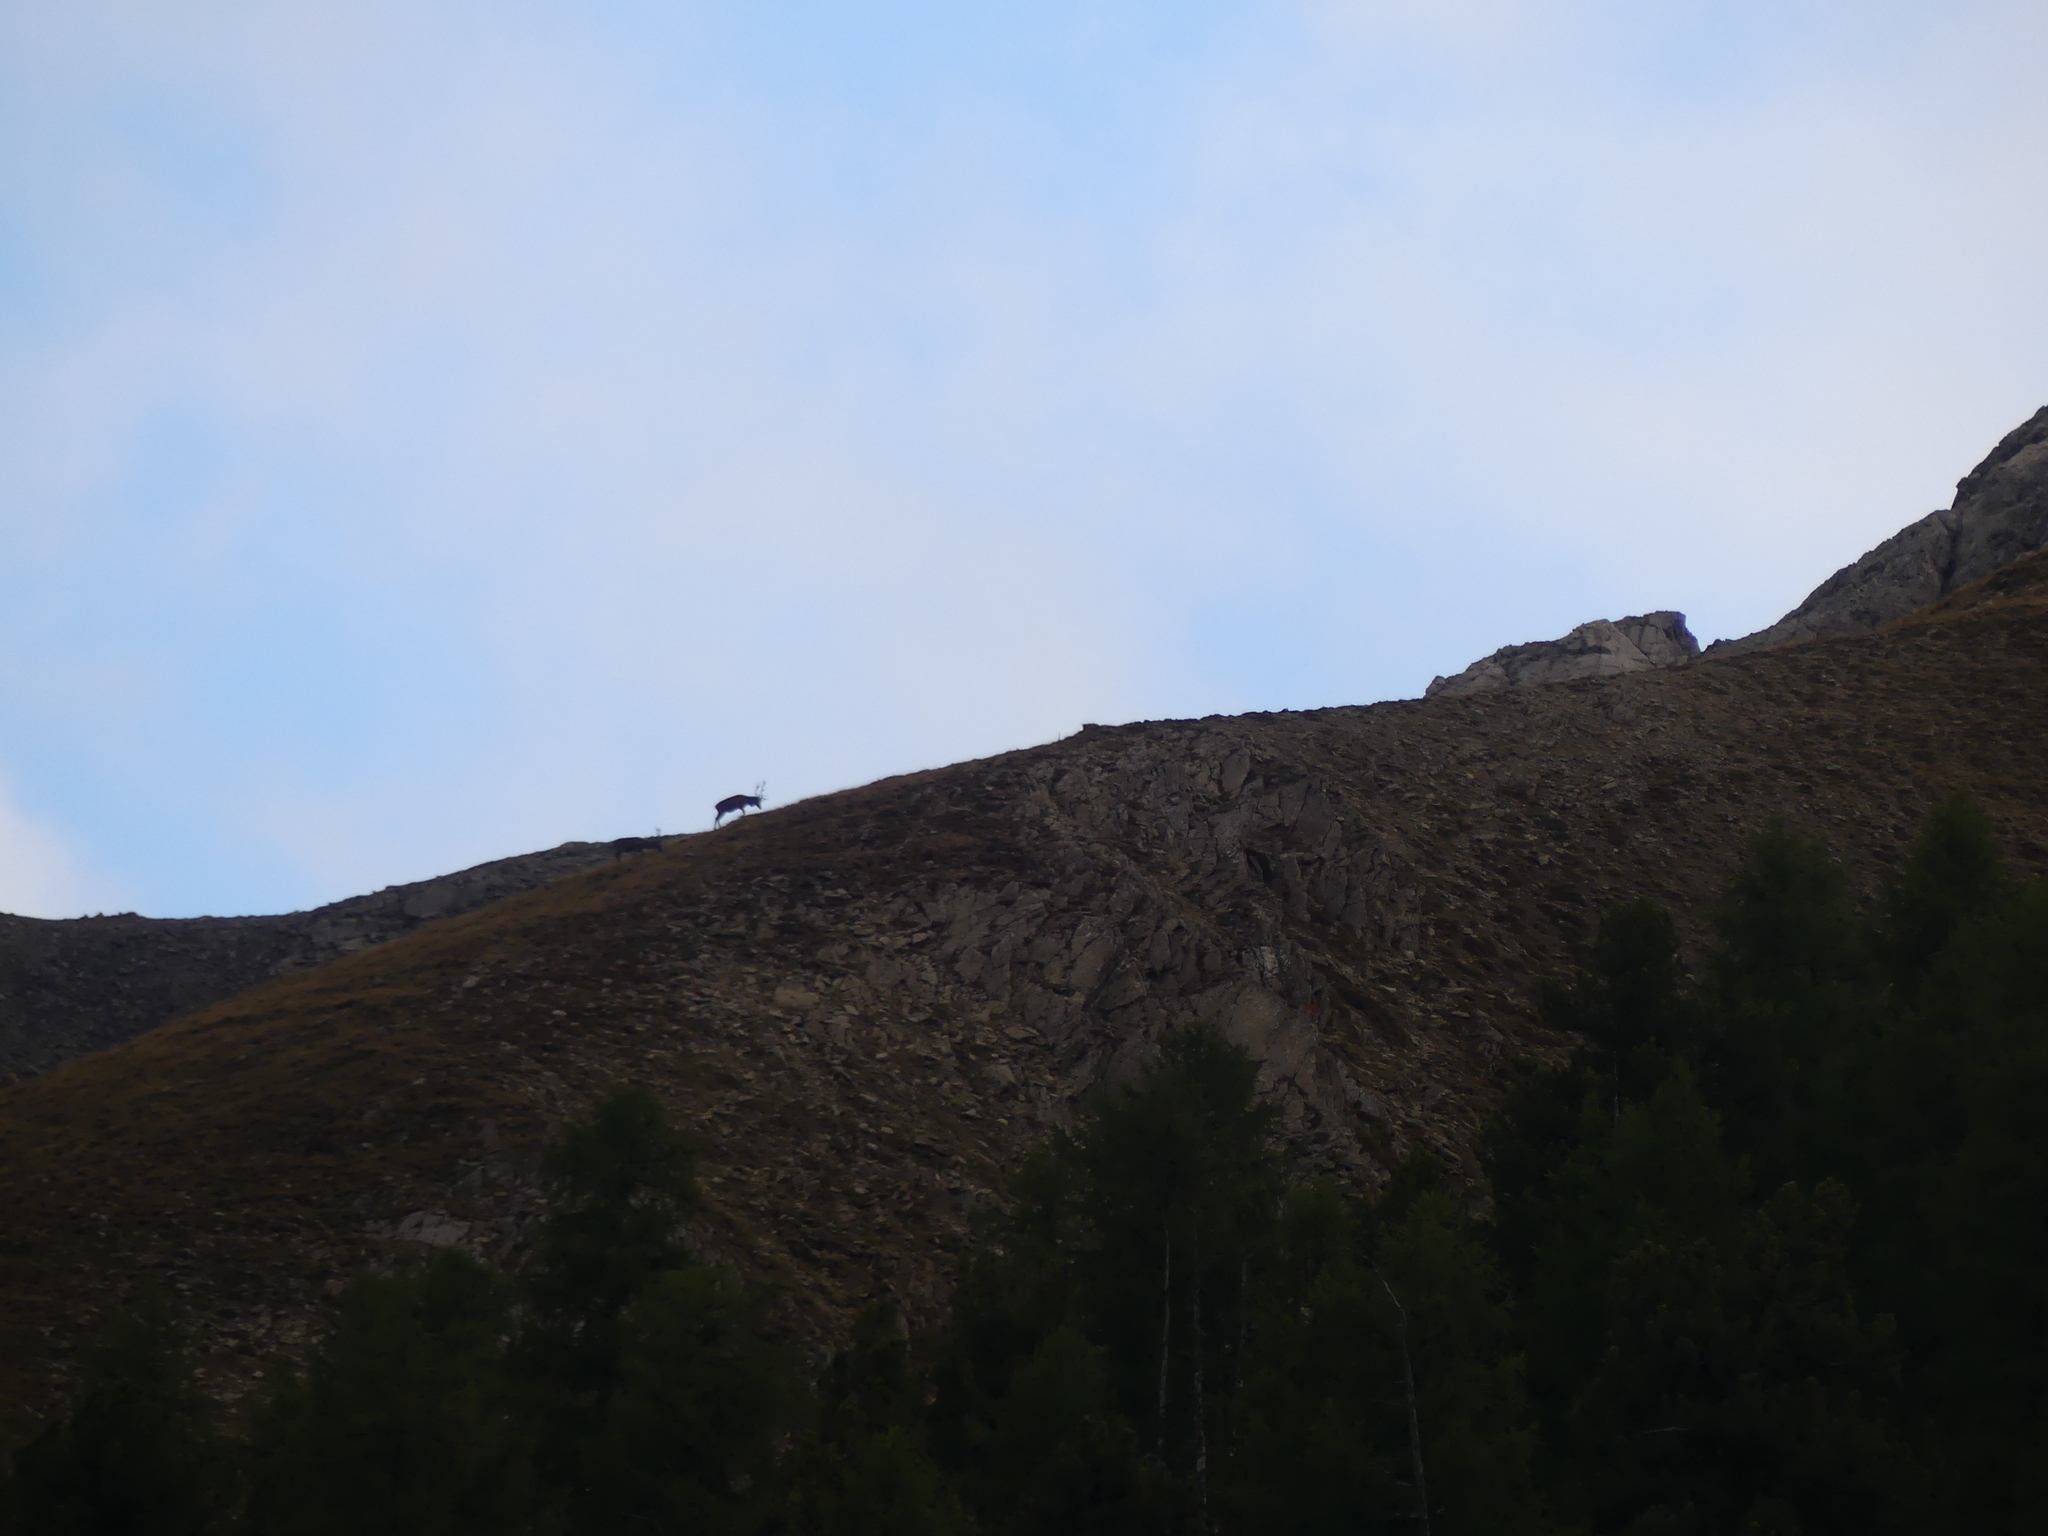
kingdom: Animalia
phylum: Chordata
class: Mammalia
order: Artiodactyla
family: Cervidae
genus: Cervus
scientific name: Cervus elaphus
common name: Red deer
